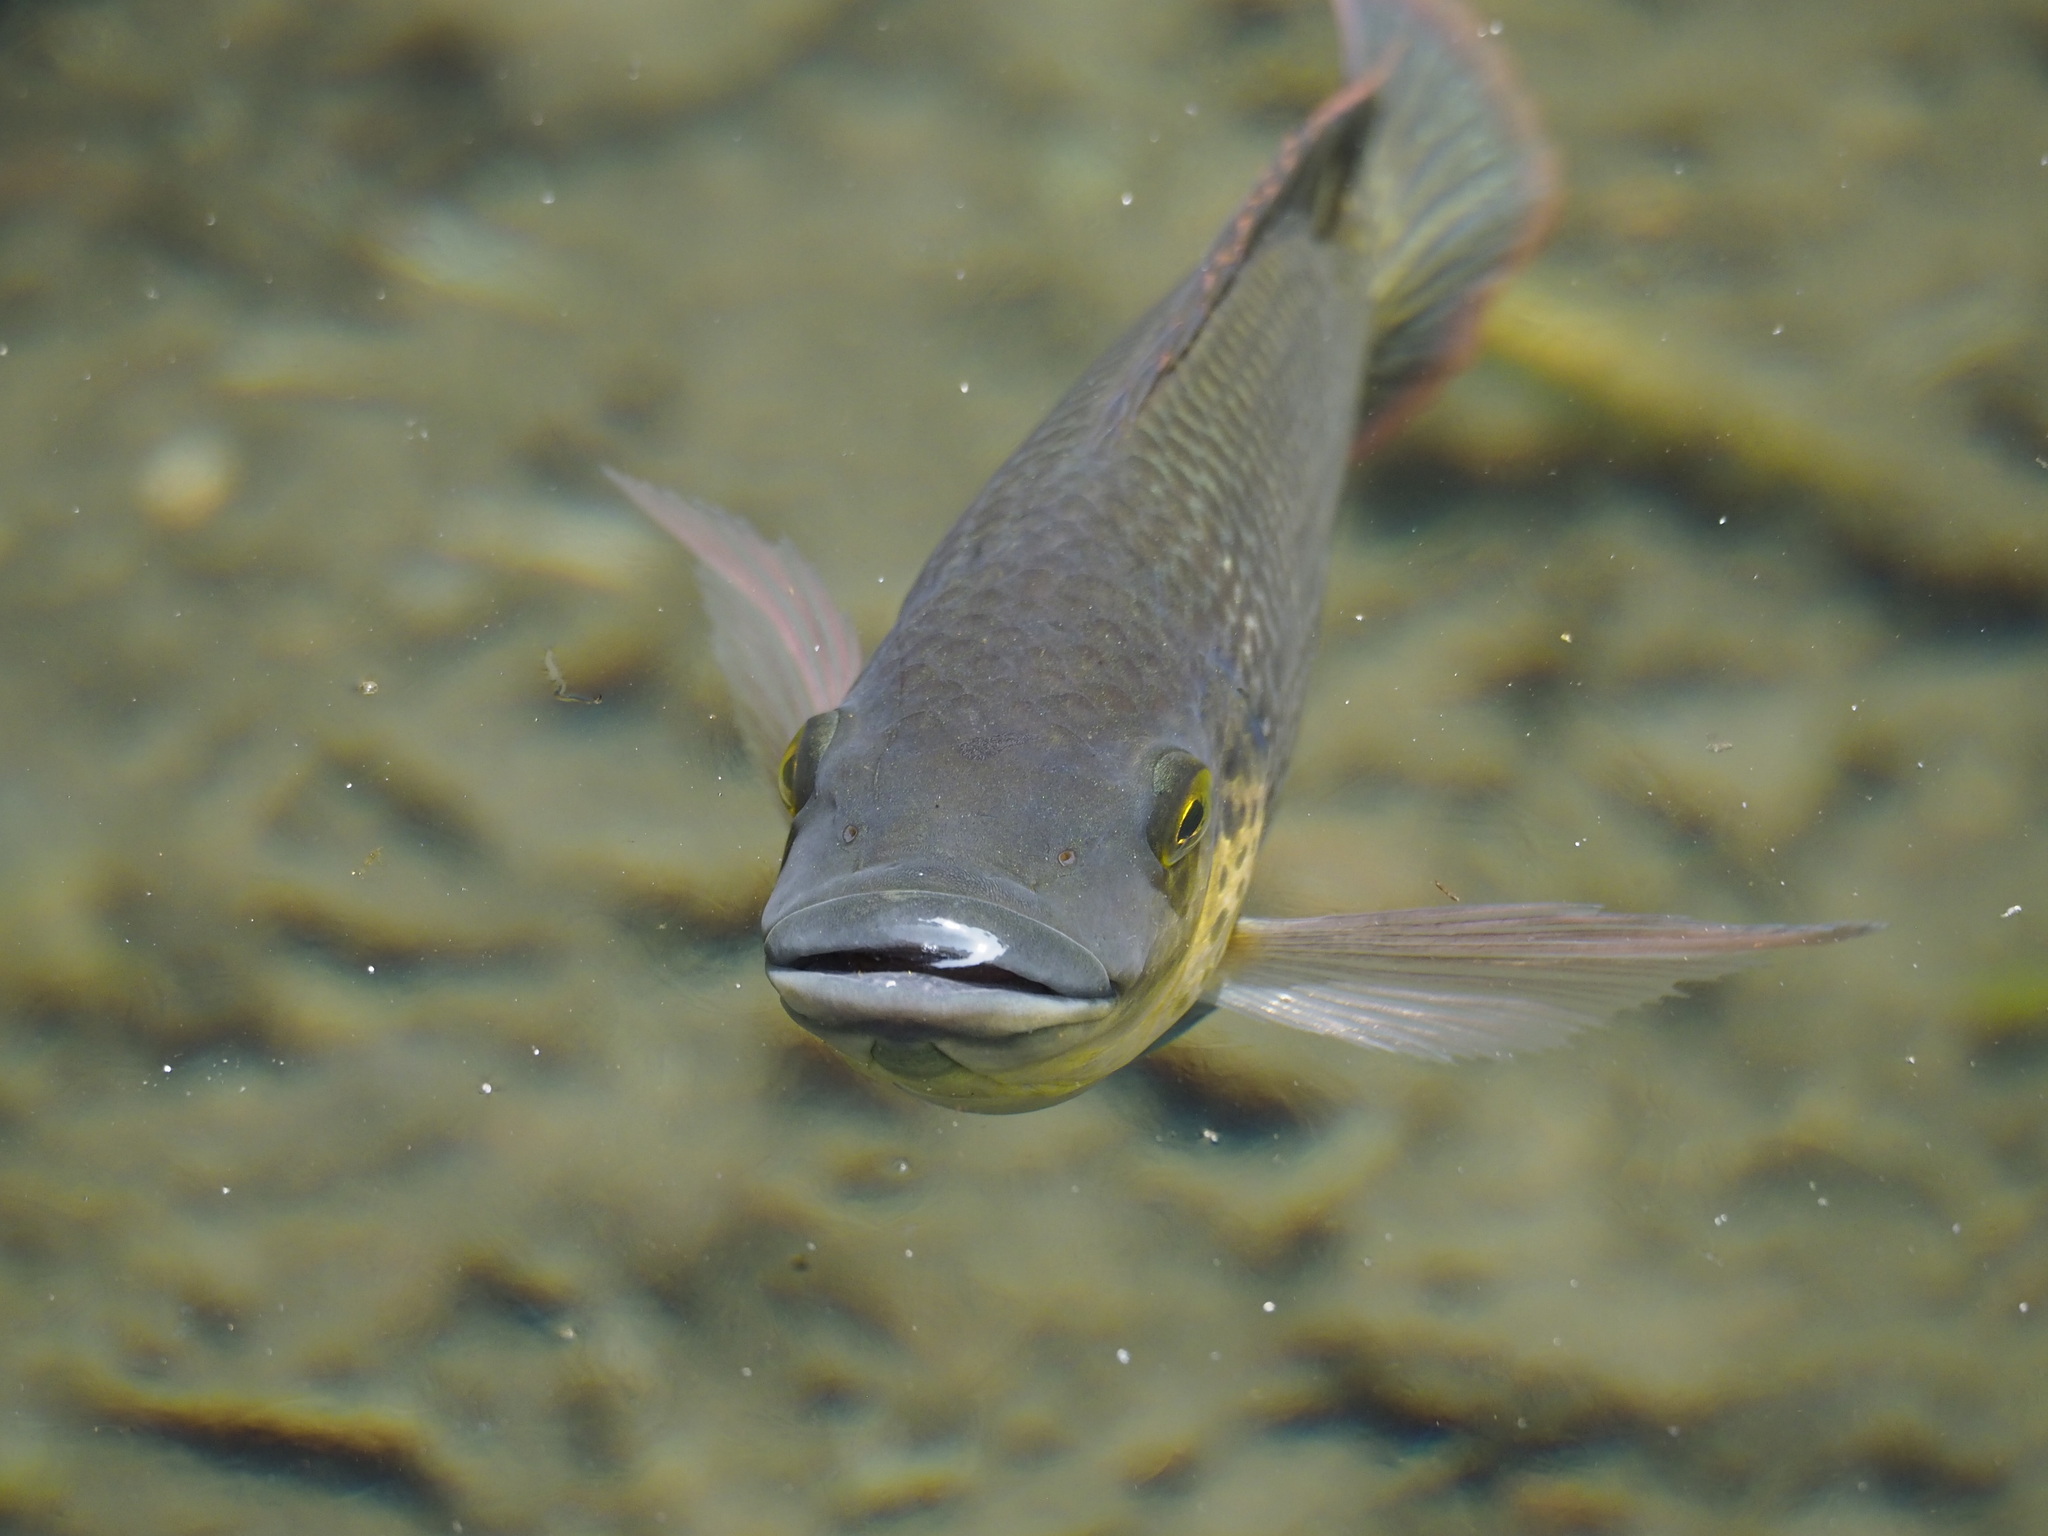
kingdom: Animalia
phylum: Chordata
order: Perciformes
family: Cichlidae
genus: Oreochromis
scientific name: Oreochromis mossambicus
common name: Mozambique tilapia
